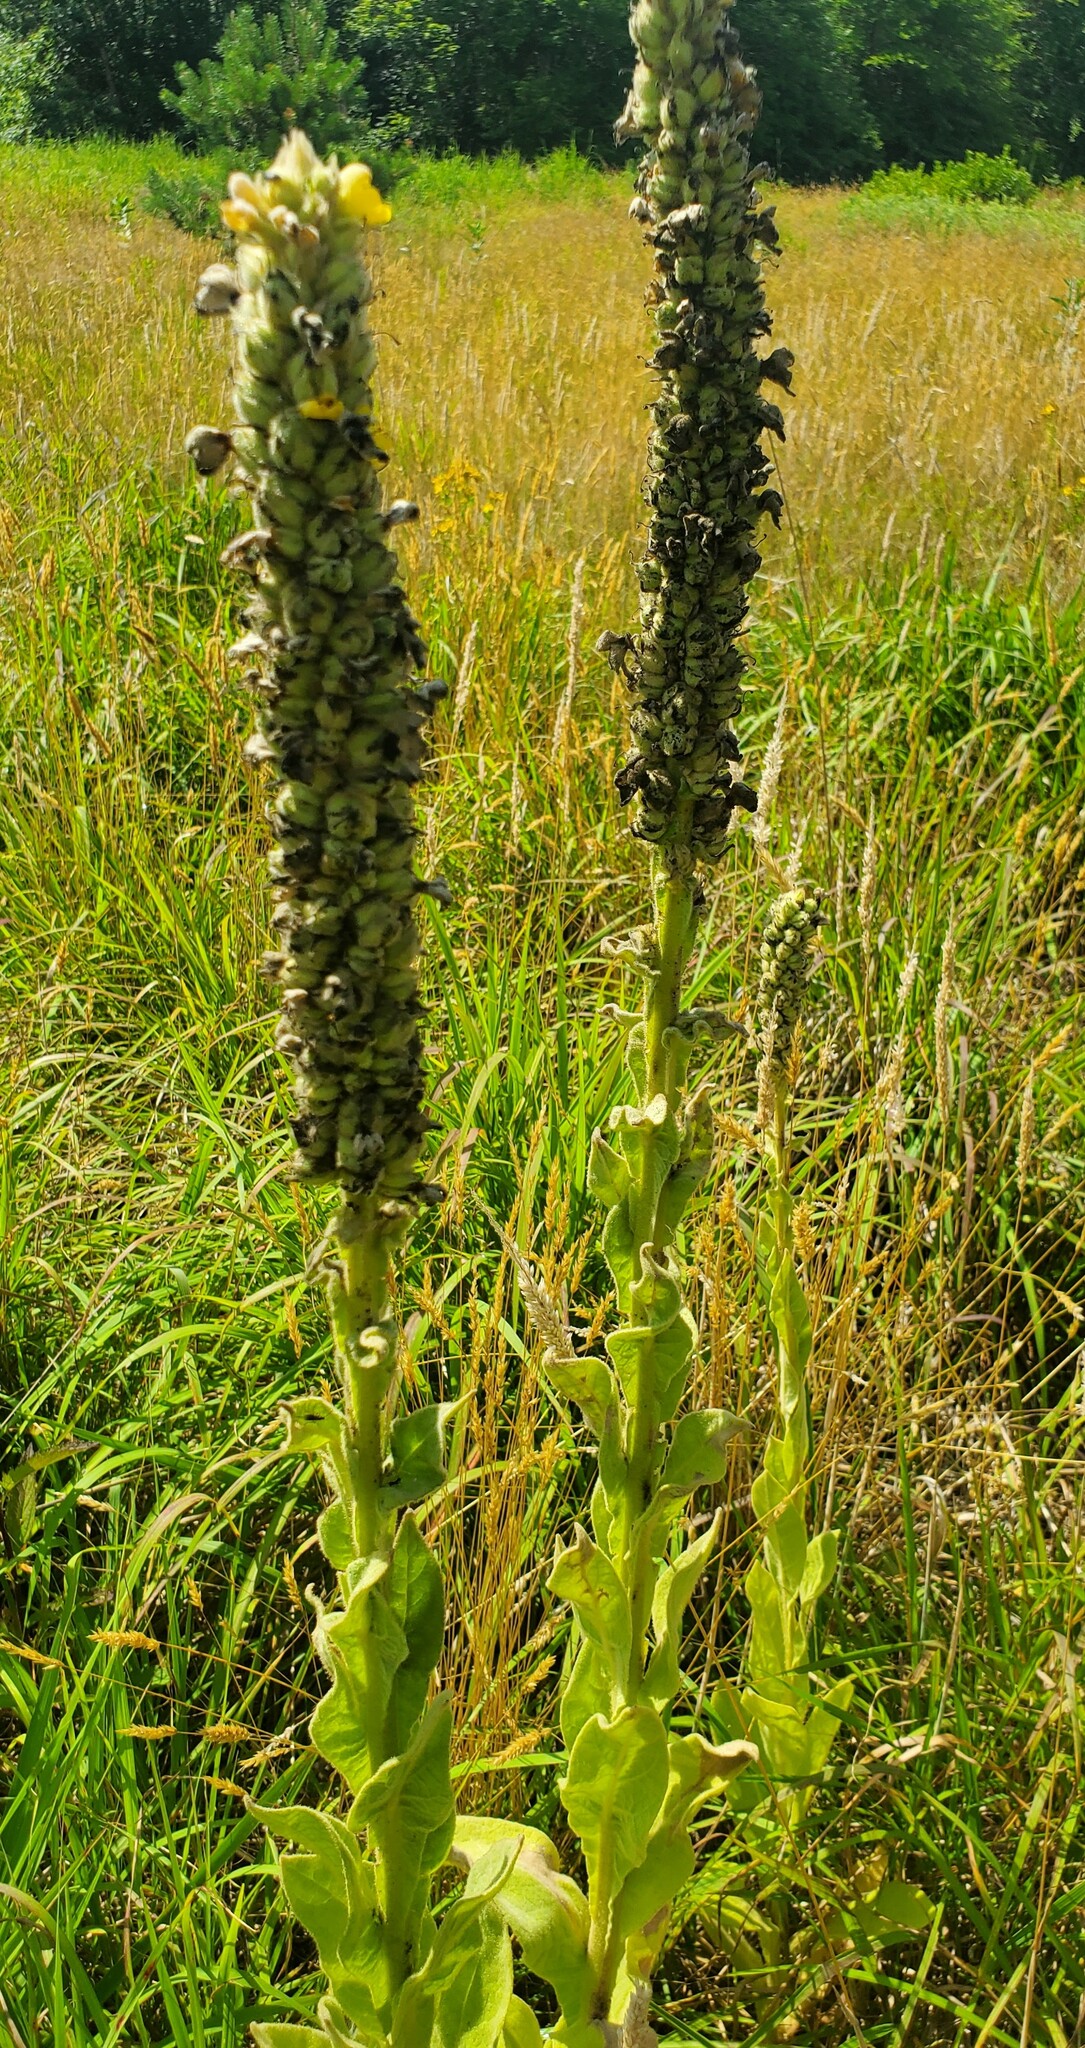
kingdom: Plantae
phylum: Tracheophyta
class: Magnoliopsida
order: Lamiales
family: Scrophulariaceae
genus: Verbascum
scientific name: Verbascum thapsus
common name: Common mullein
